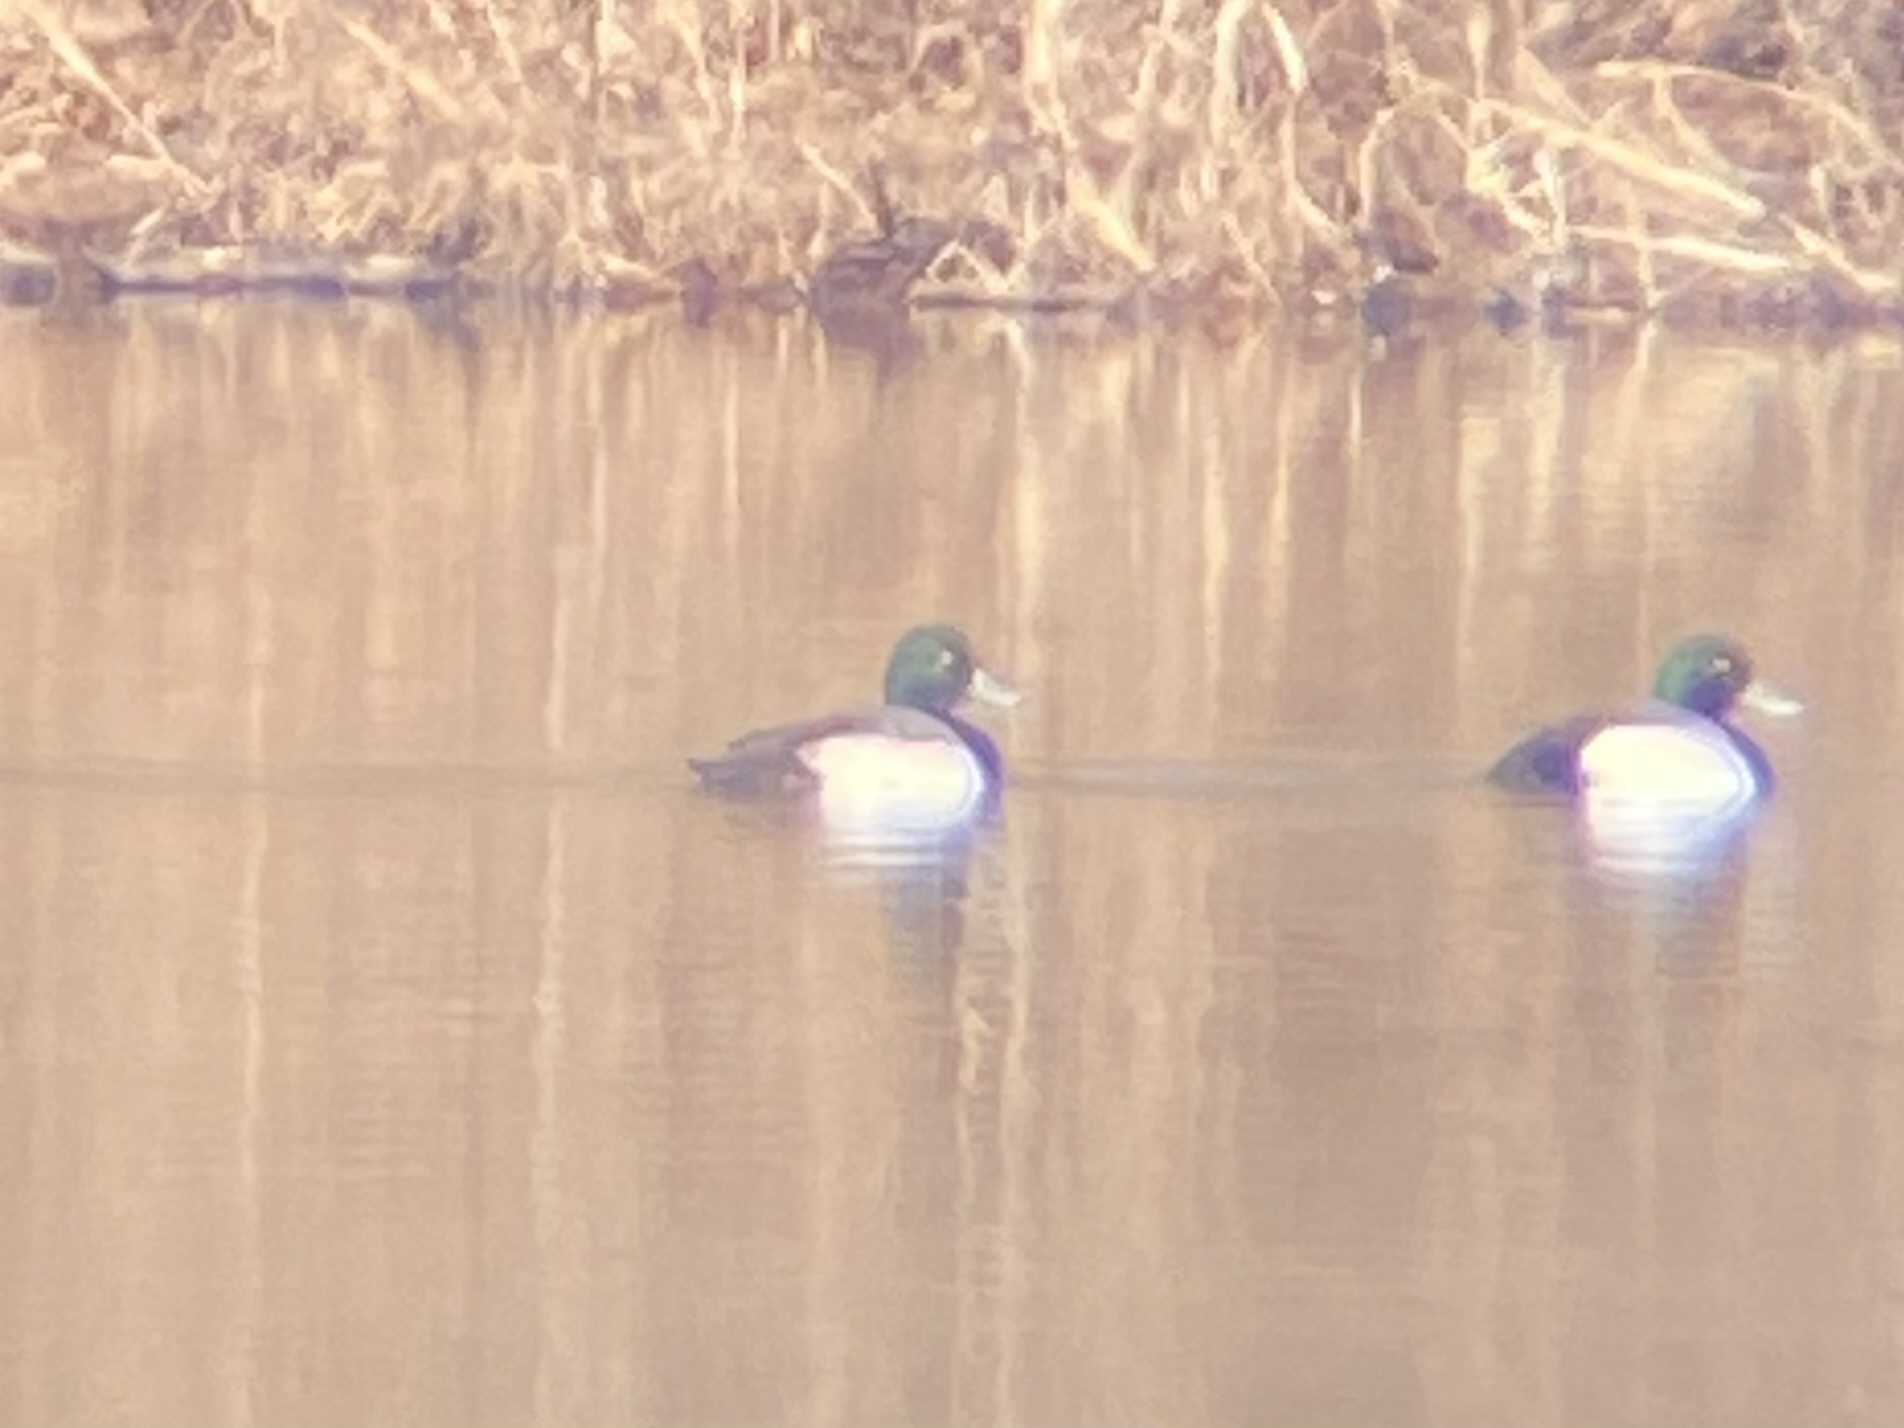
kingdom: Animalia
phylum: Chordata
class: Aves
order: Anseriformes
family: Anatidae
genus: Aythya
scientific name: Aythya marila
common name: Greater scaup
